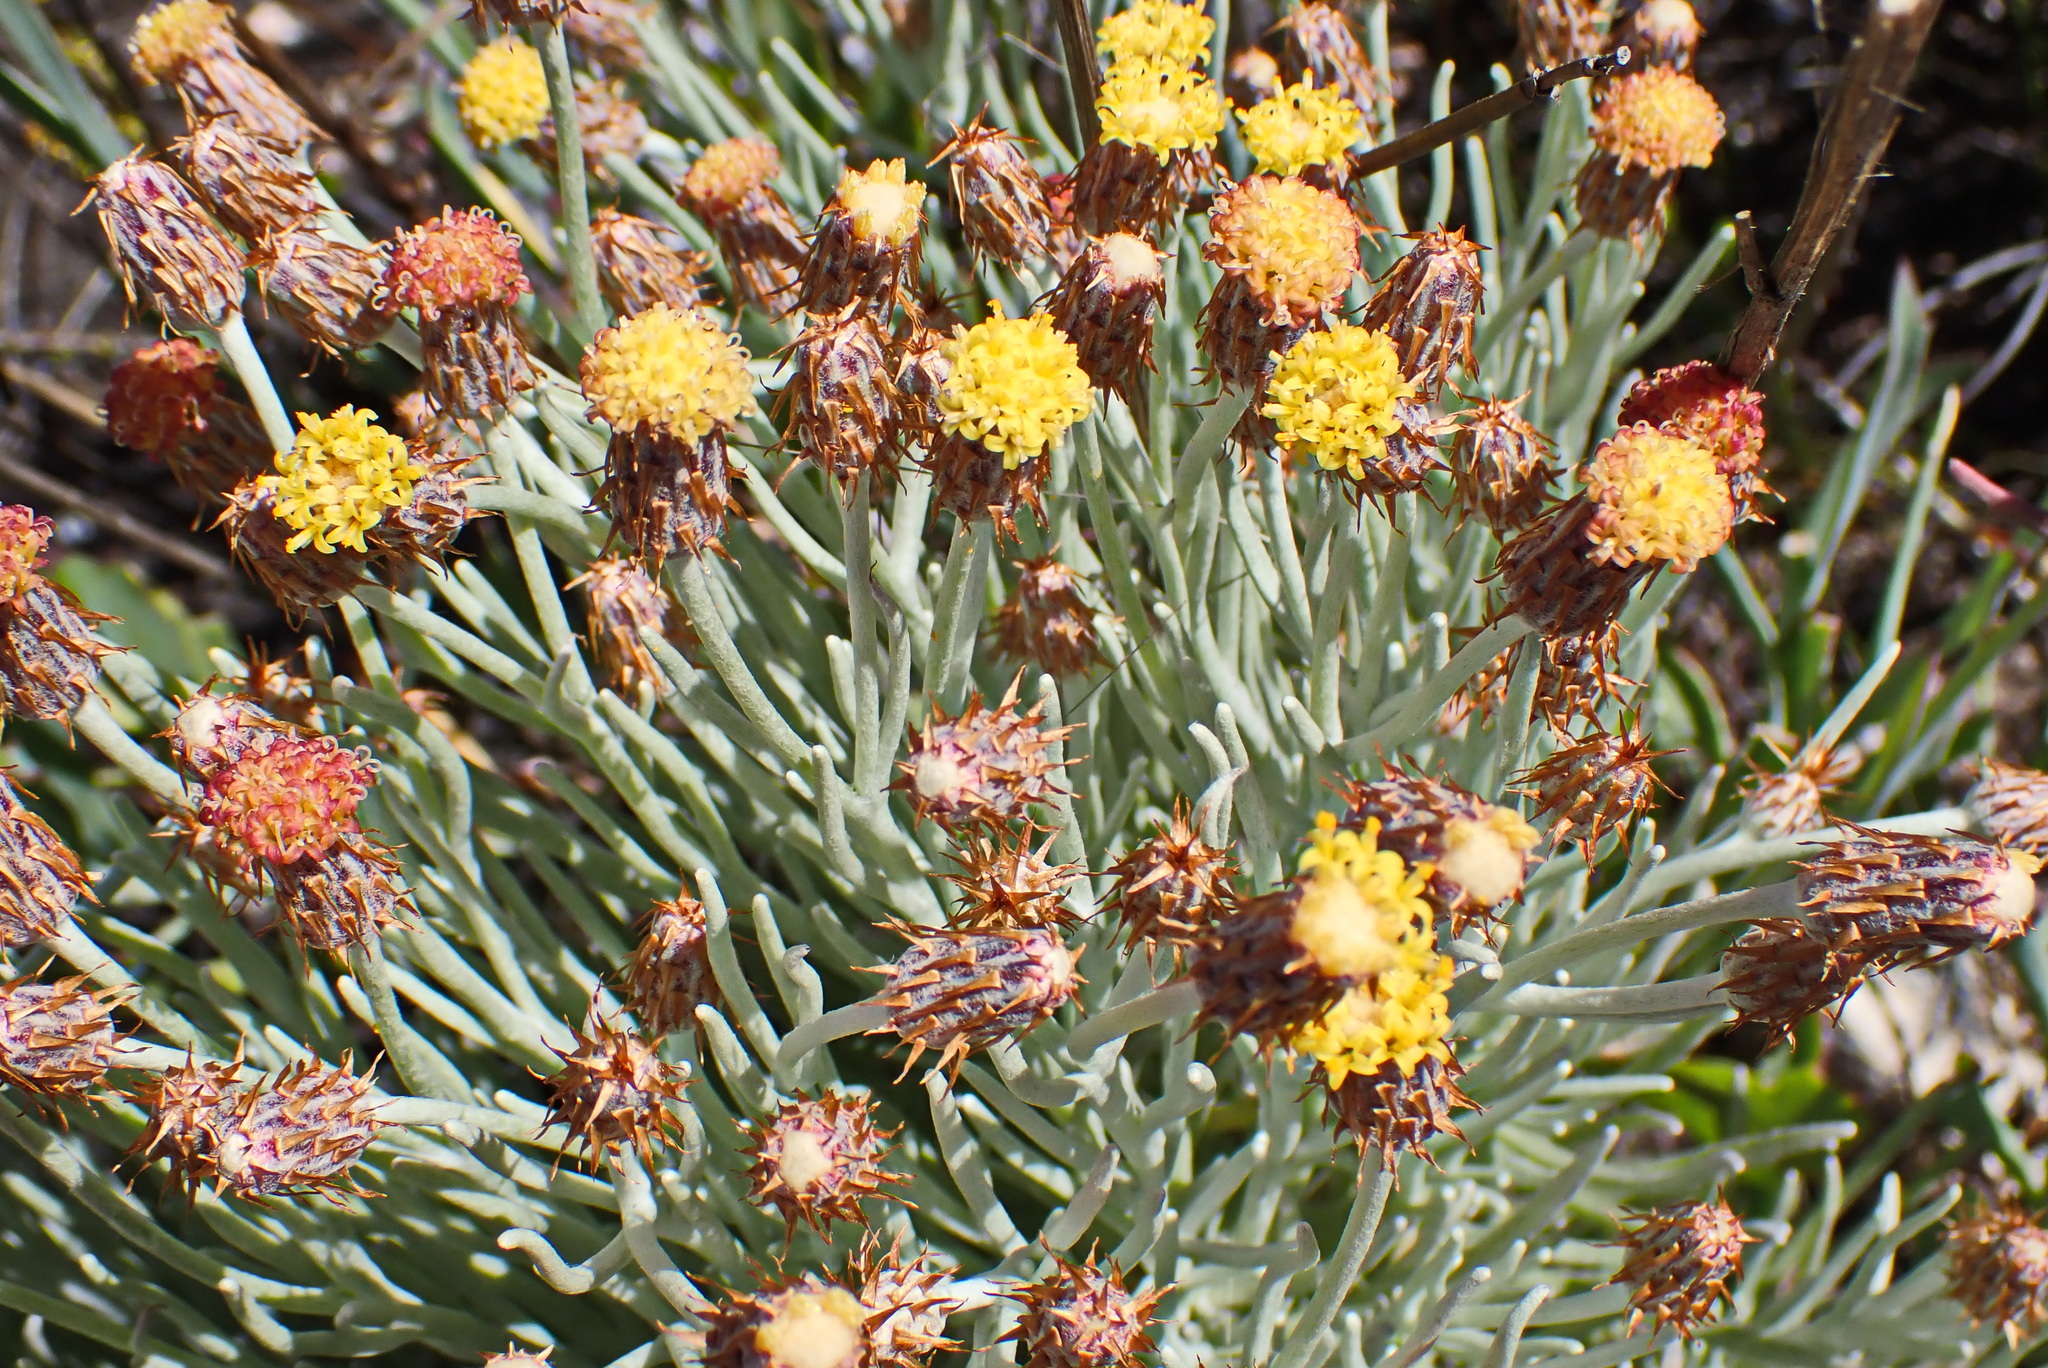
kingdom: Plantae
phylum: Tracheophyta
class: Magnoliopsida
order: Asterales
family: Asteraceae
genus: Syncarpha
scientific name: Syncarpha gnaphaloides
